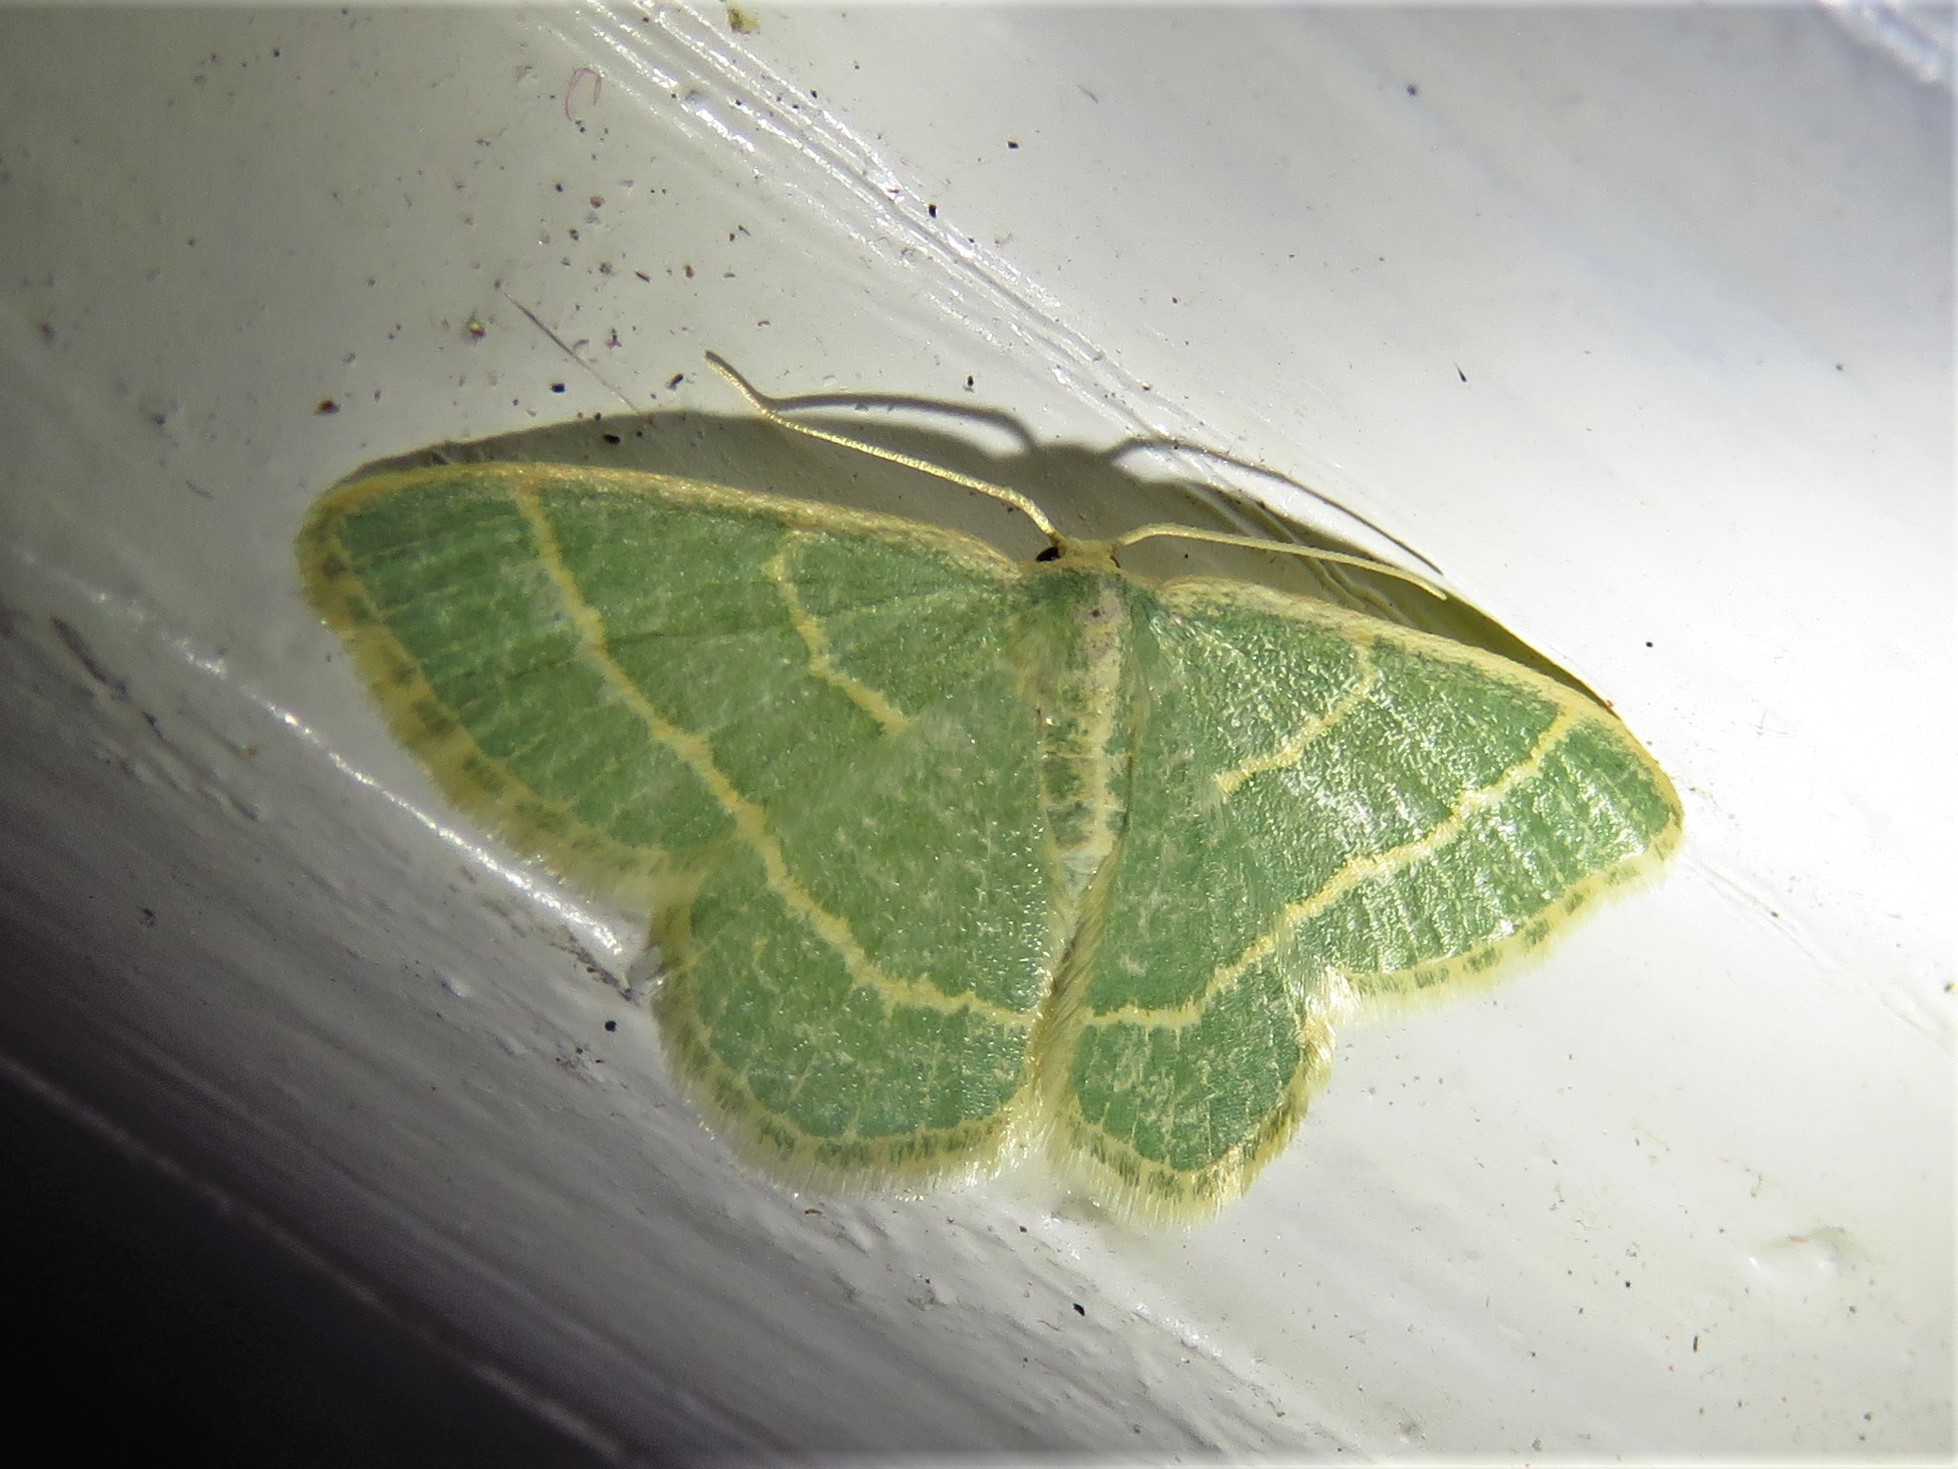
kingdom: Animalia
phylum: Arthropoda
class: Insecta
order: Lepidoptera
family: Geometridae
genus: Chlorochlamys
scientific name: Chlorochlamys chloroleucaria
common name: Blackberry looper
